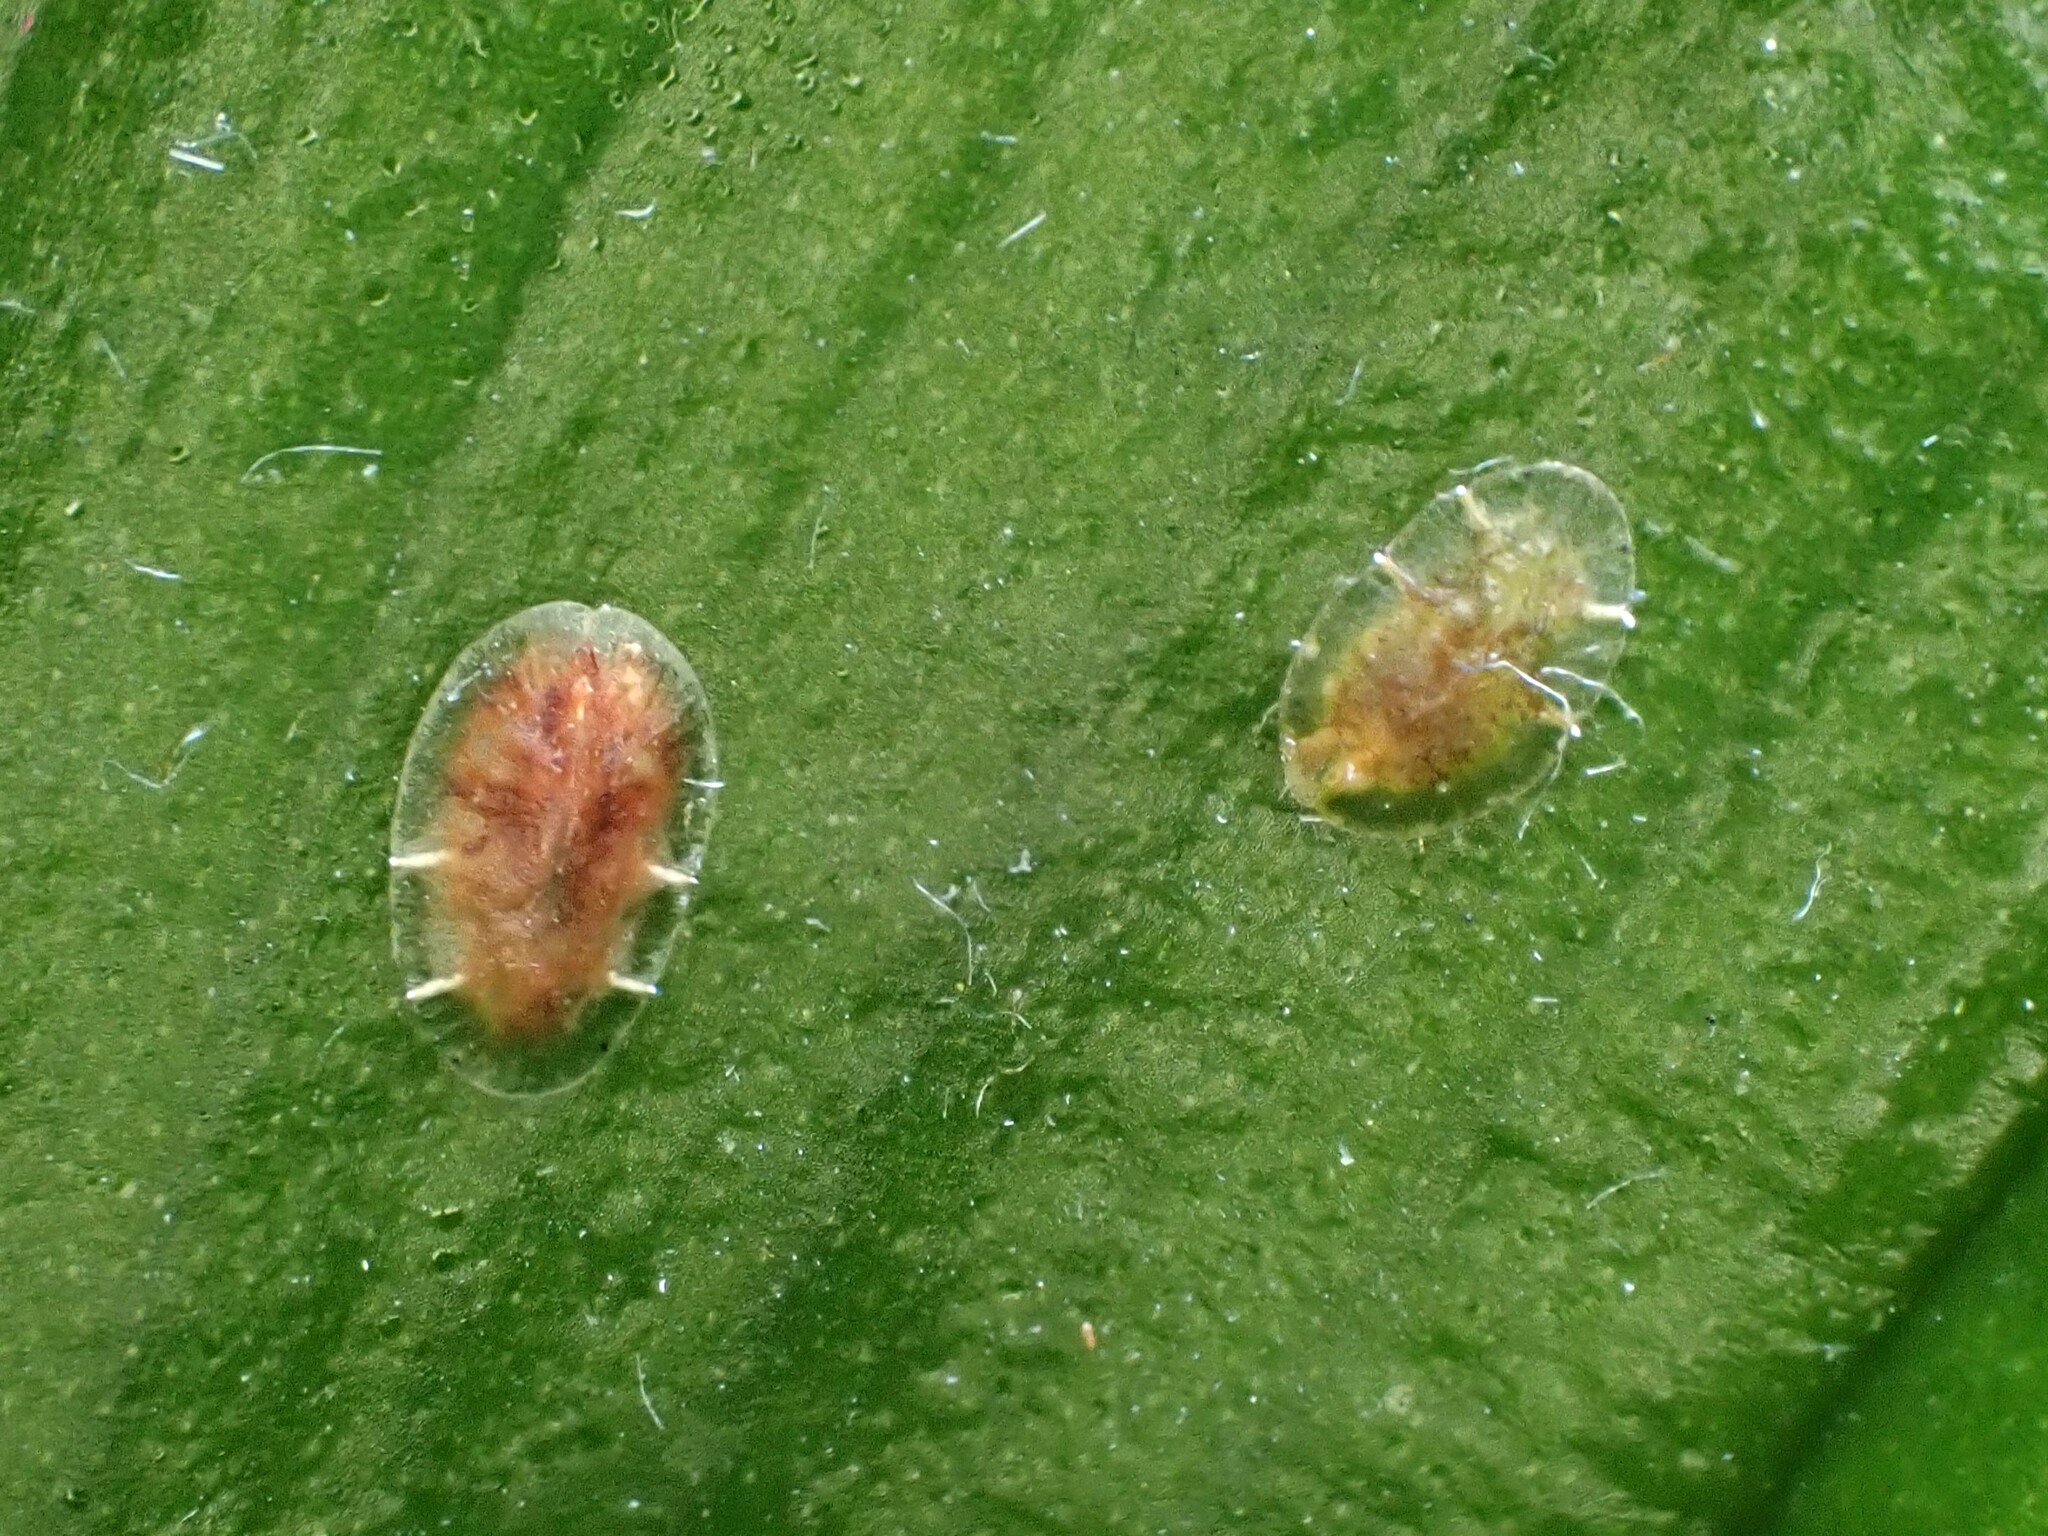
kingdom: Animalia
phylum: Arthropoda
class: Insecta
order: Hemiptera
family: Coccidae
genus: Coccus
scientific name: Coccus hesperidum
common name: Soft brown scale
